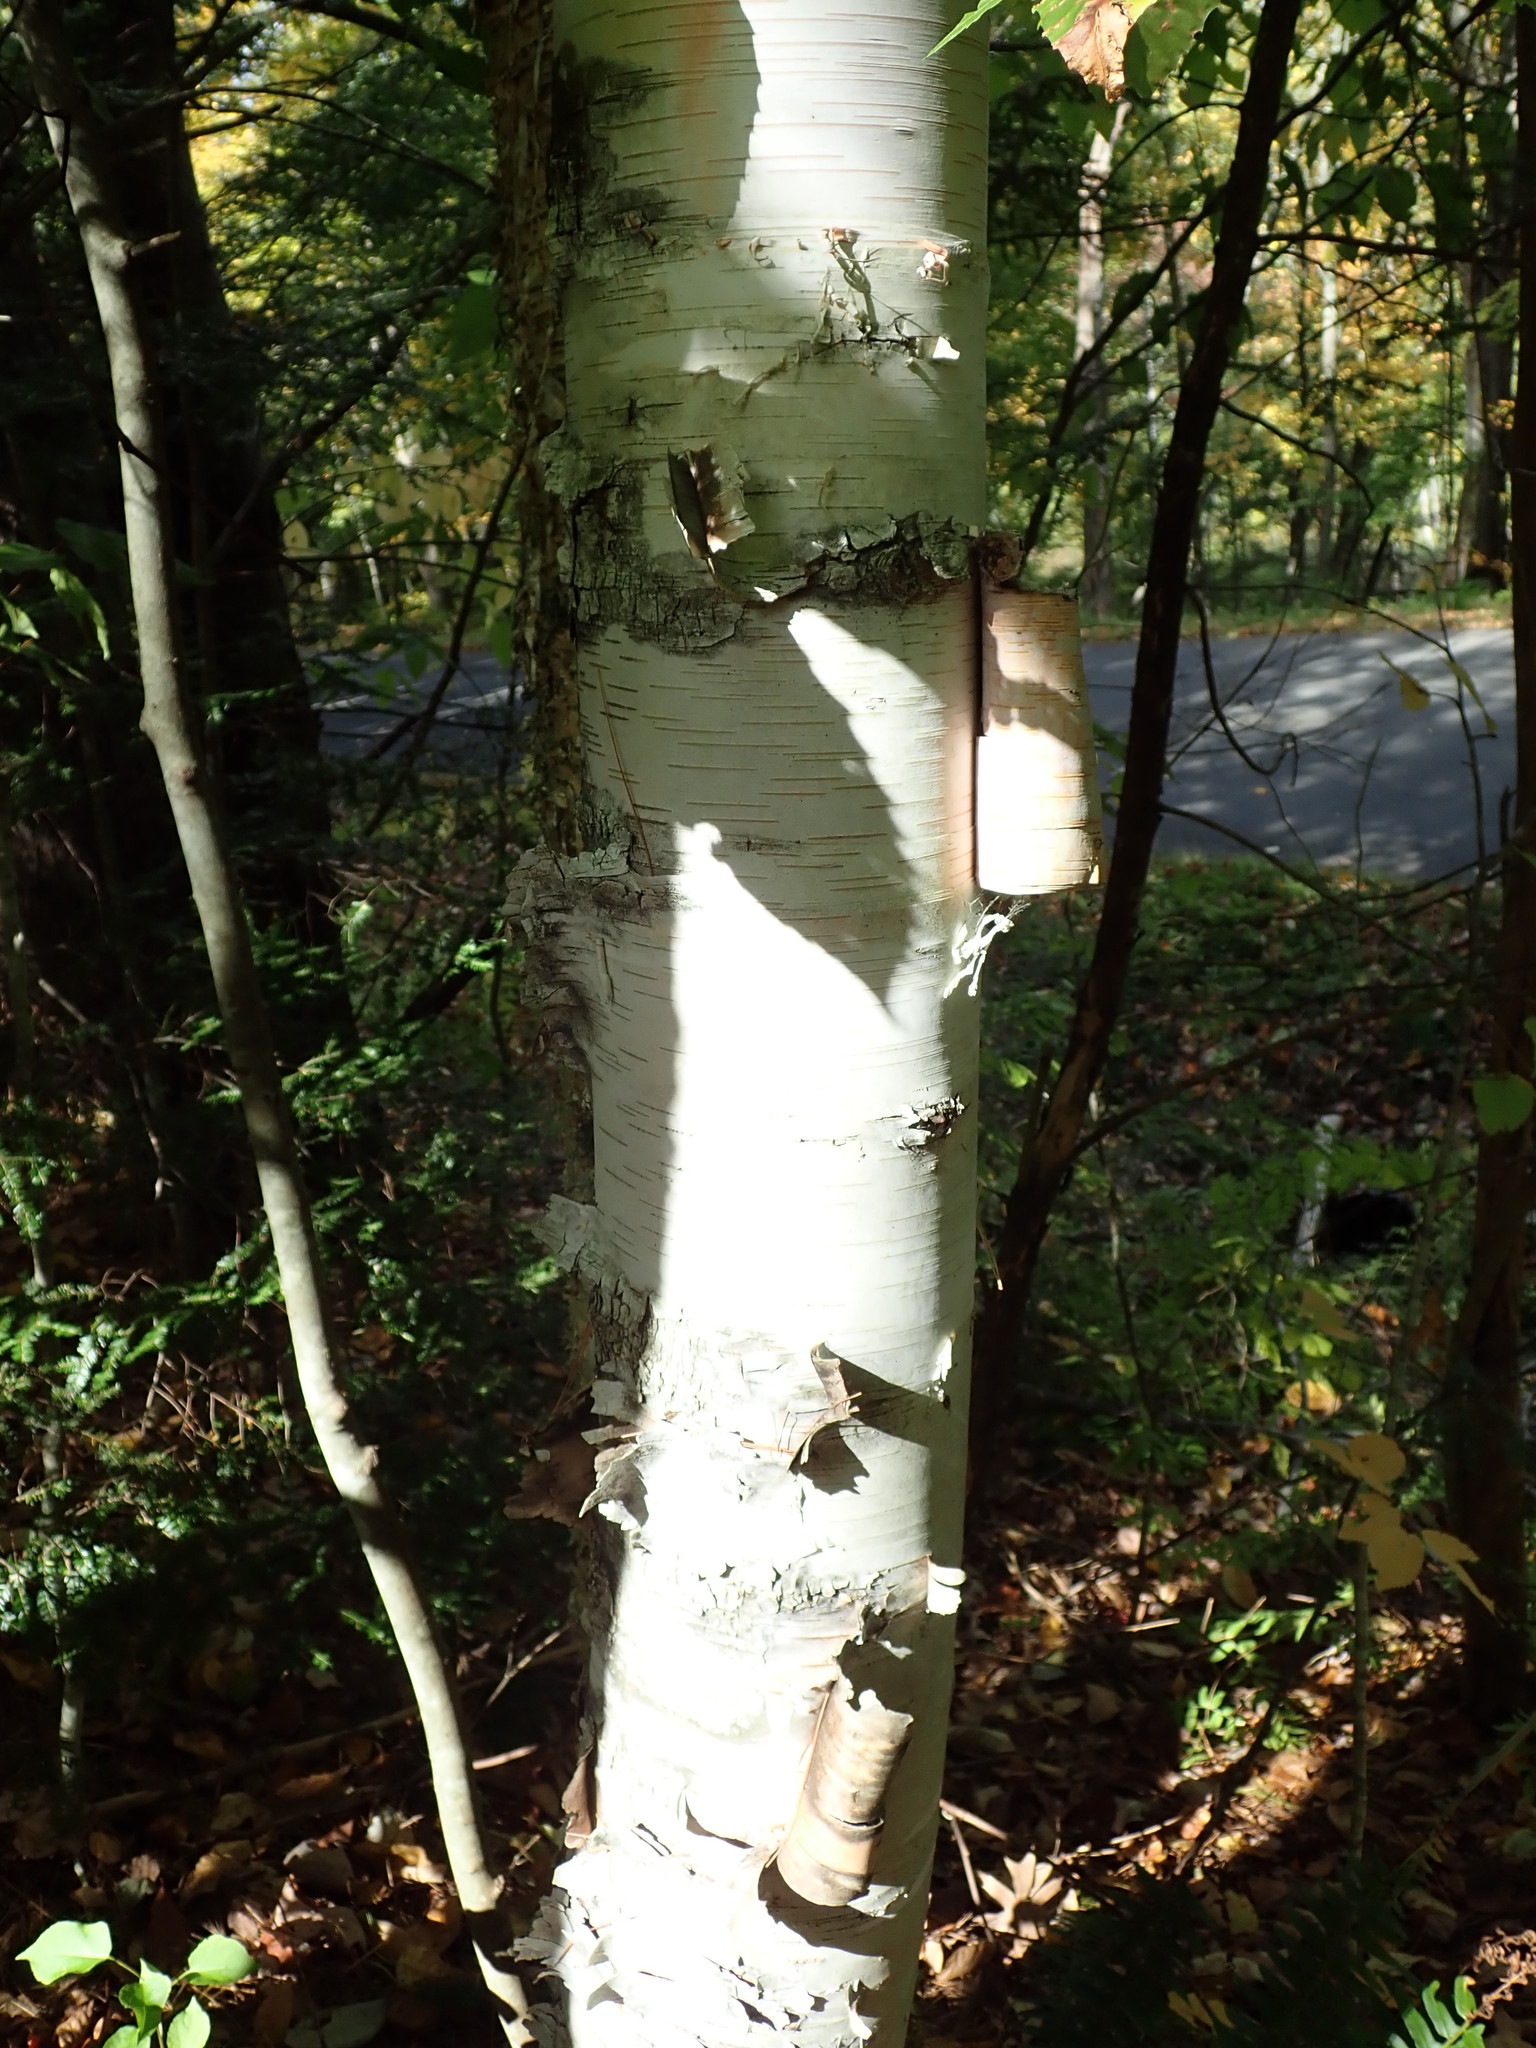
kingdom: Plantae
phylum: Tracheophyta
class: Magnoliopsida
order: Fagales
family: Betulaceae
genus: Betula
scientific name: Betula papyrifera
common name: Paper birch
